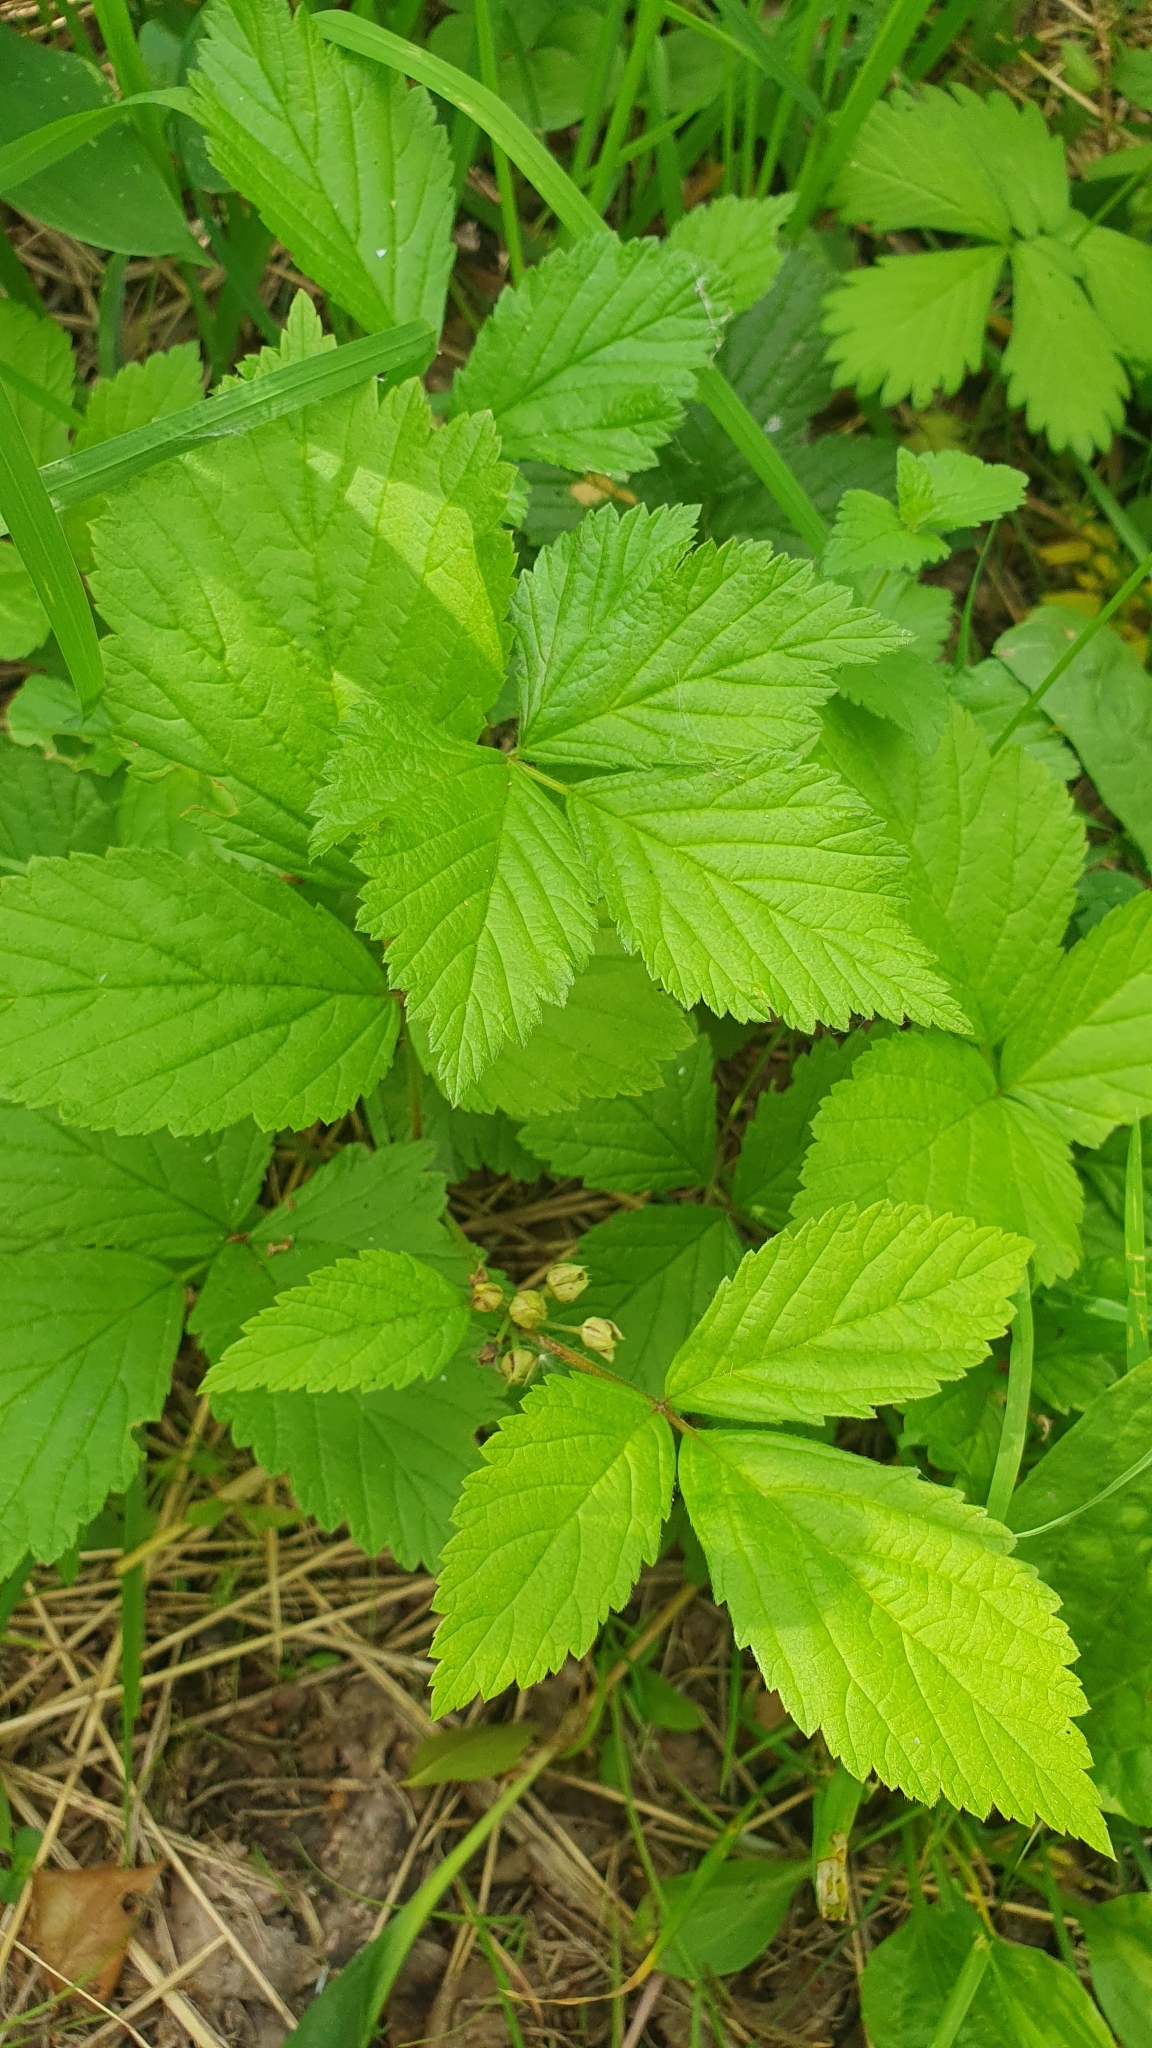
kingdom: Plantae
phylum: Tracheophyta
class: Magnoliopsida
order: Rosales
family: Rosaceae
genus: Rubus
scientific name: Rubus saxatilis
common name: Stone bramble
